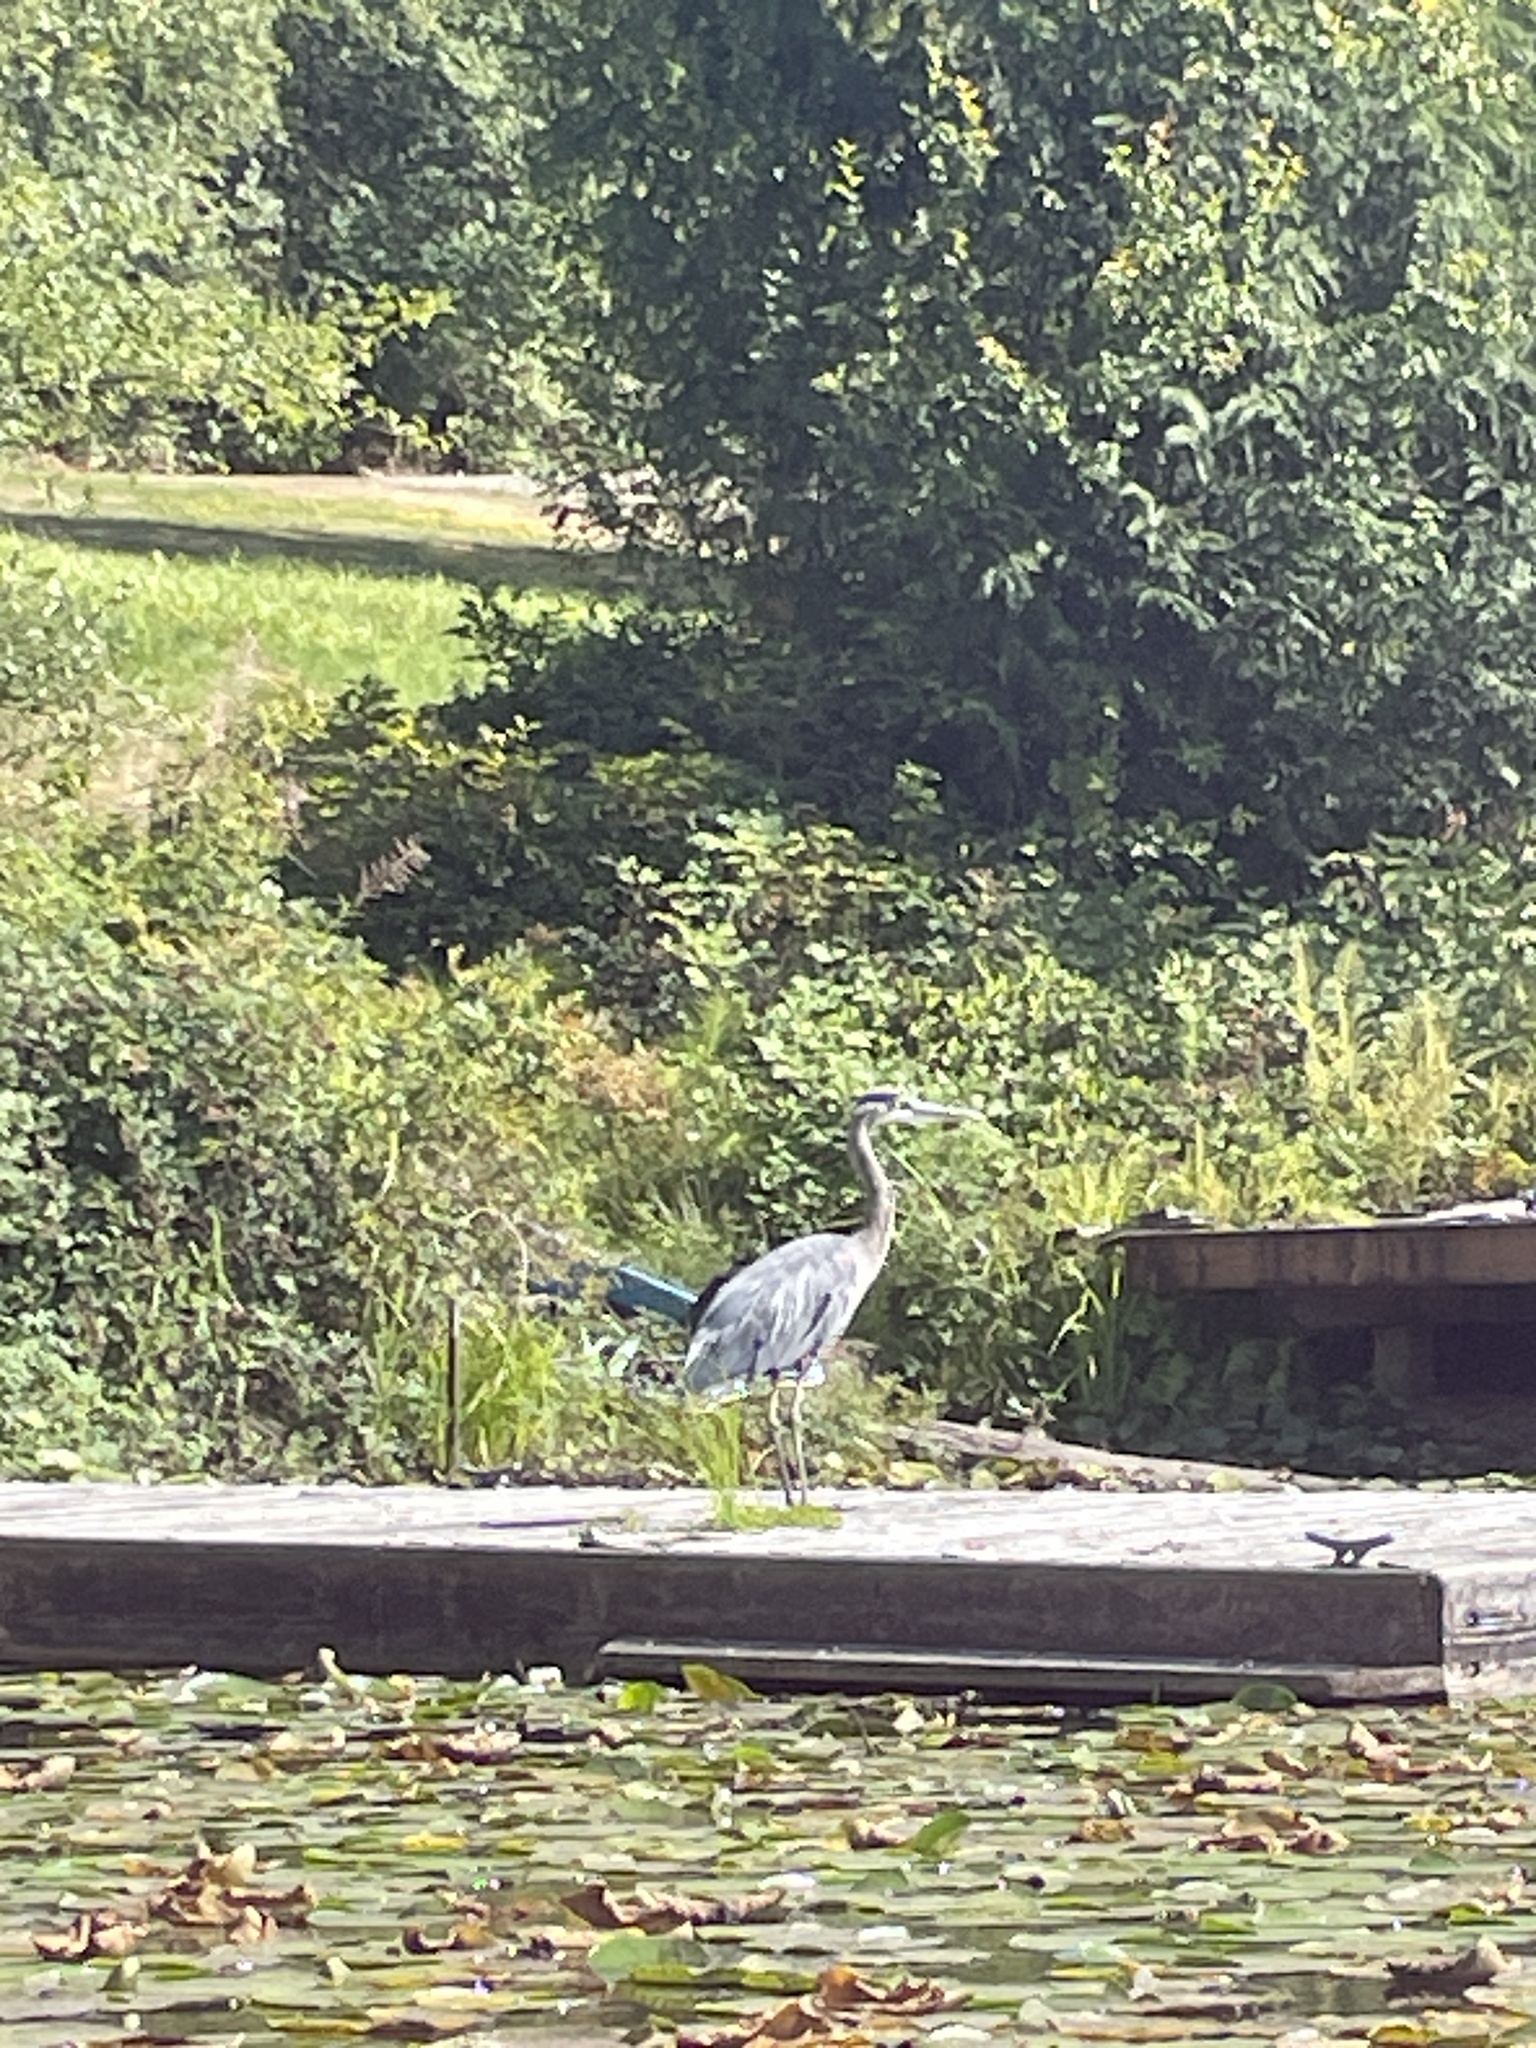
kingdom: Animalia
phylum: Chordata
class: Aves
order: Pelecaniformes
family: Ardeidae
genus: Ardea
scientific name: Ardea herodias
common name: Great blue heron
